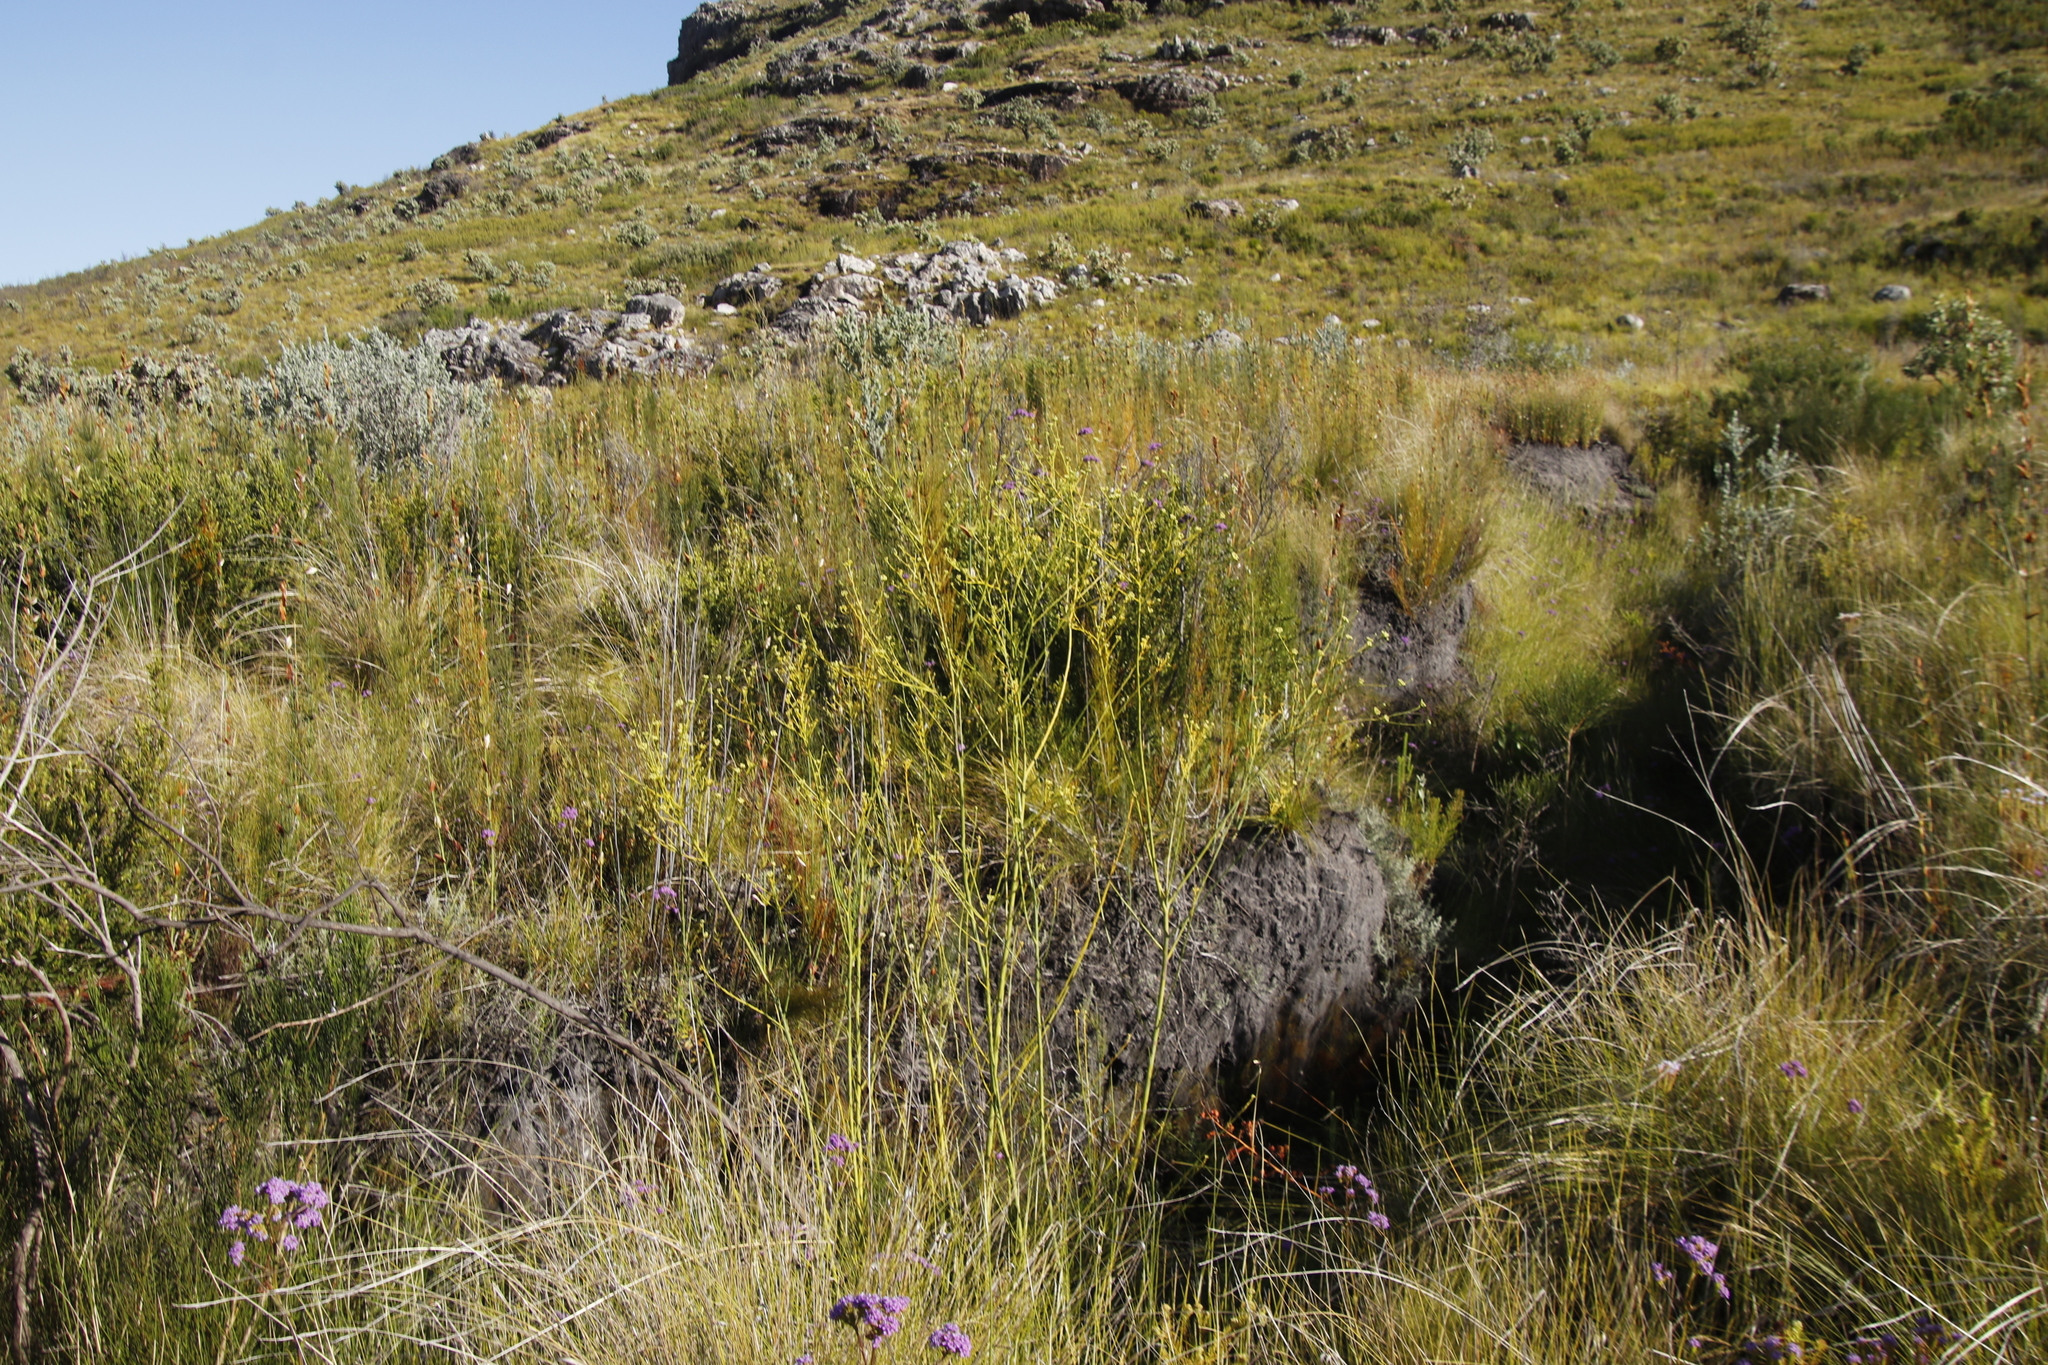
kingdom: Plantae
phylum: Tracheophyta
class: Magnoliopsida
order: Santalales
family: Thesiaceae
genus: Thesium
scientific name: Thesium strictum
